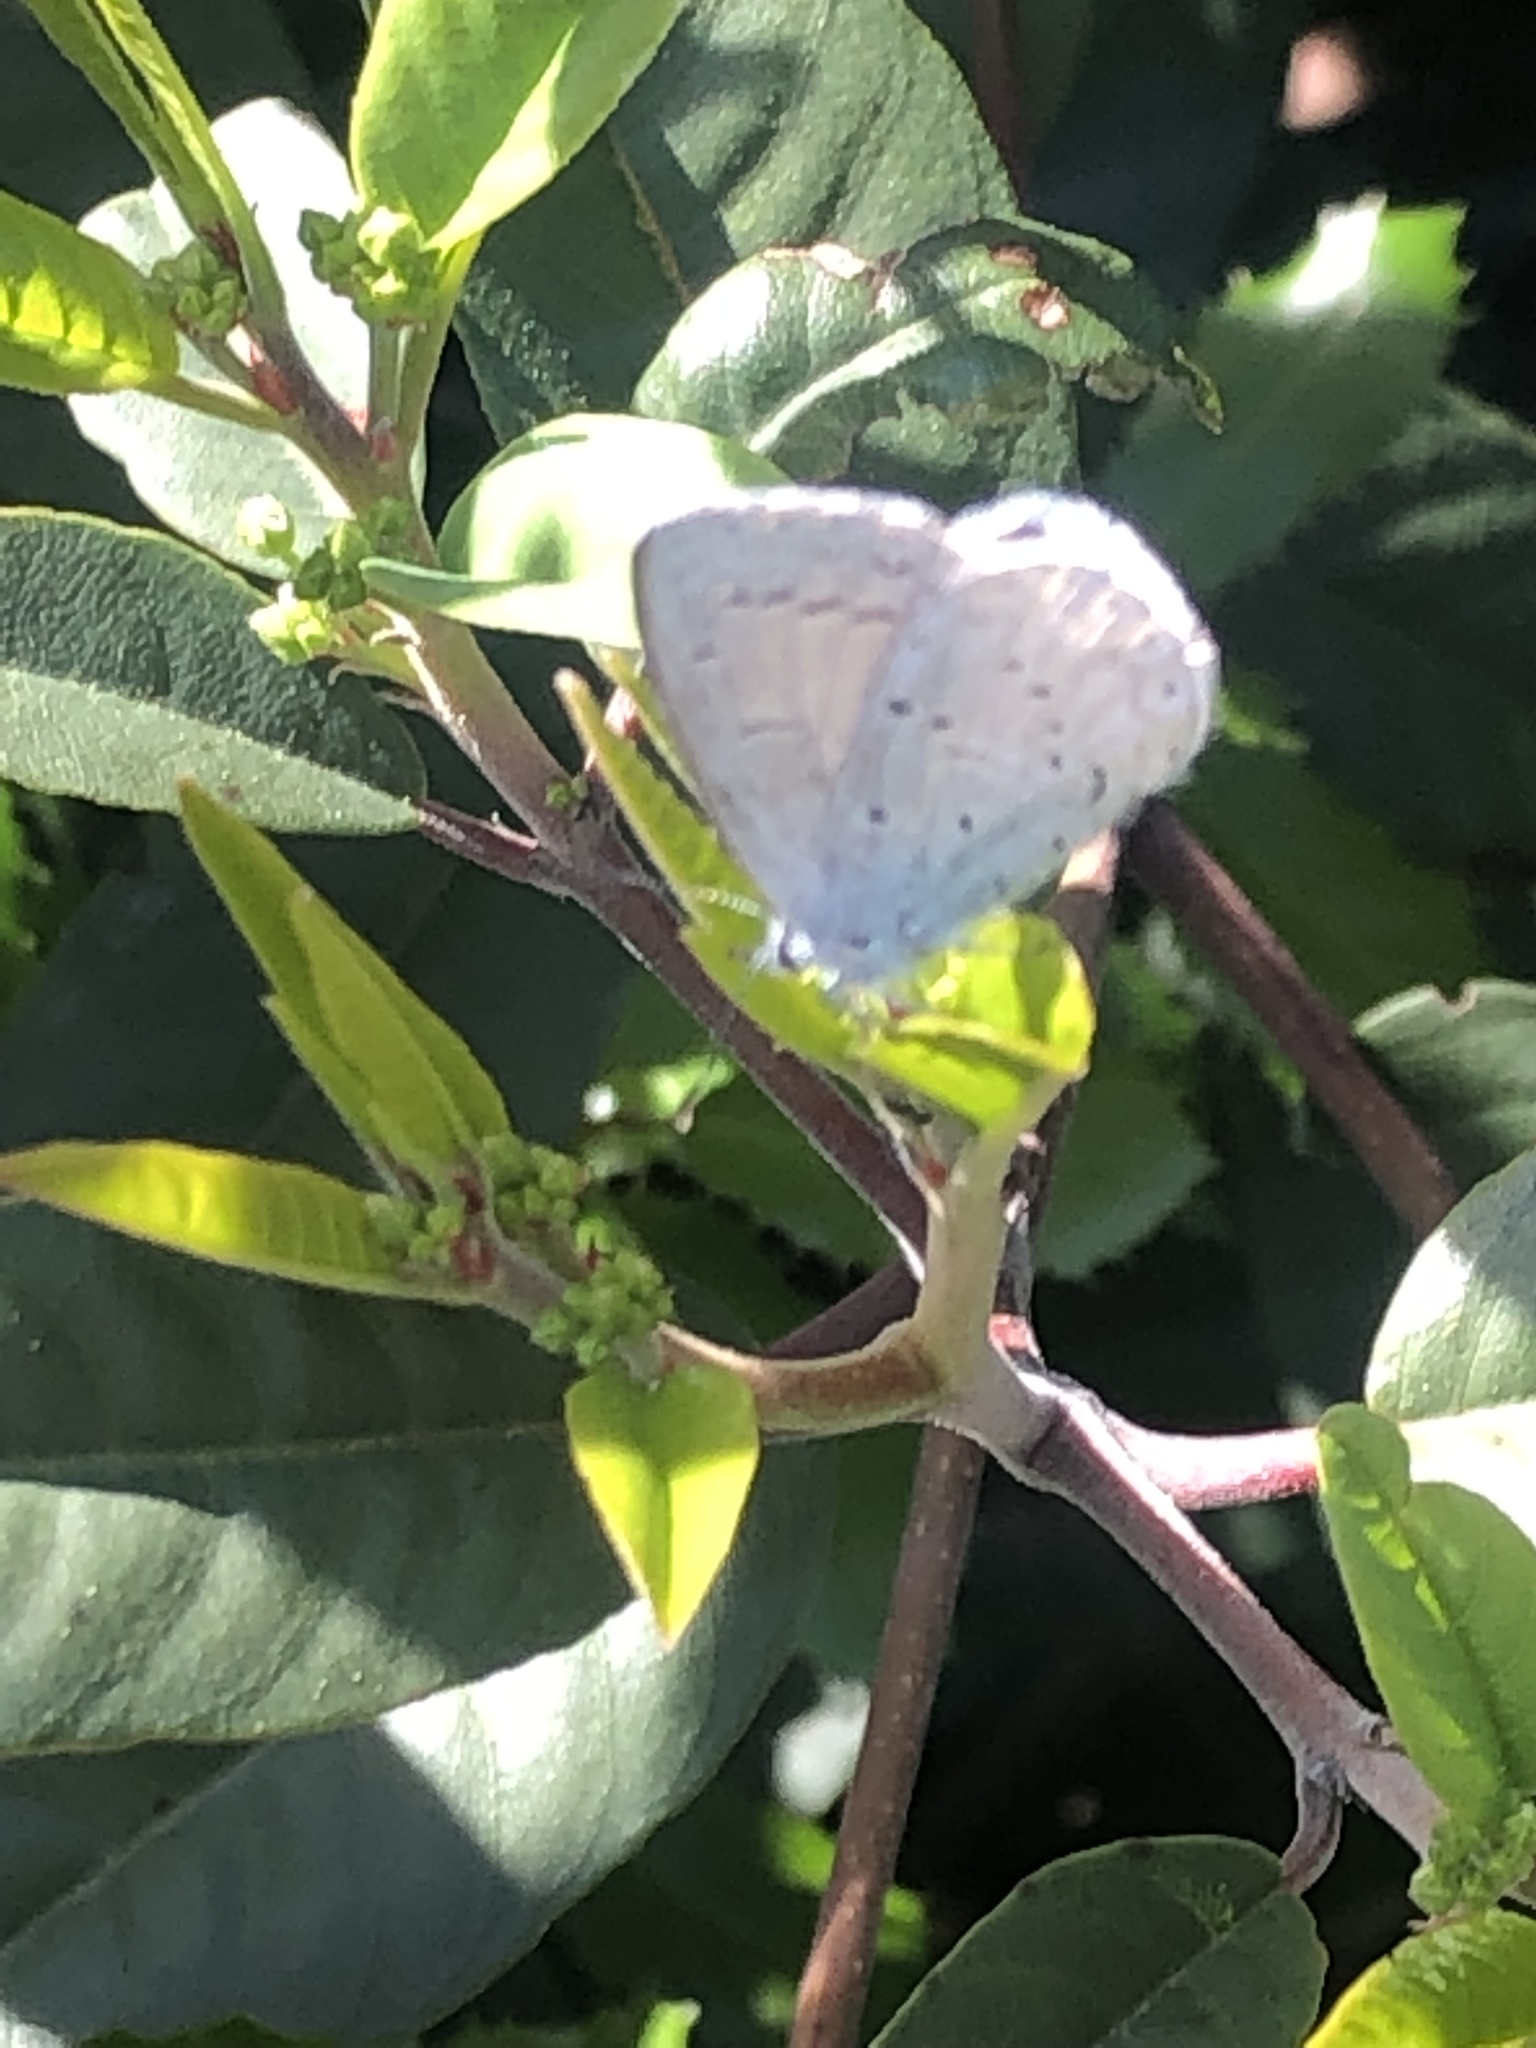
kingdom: Animalia
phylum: Arthropoda
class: Insecta
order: Lepidoptera
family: Lycaenidae
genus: Celastrina
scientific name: Celastrina ladon
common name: Spring azure
